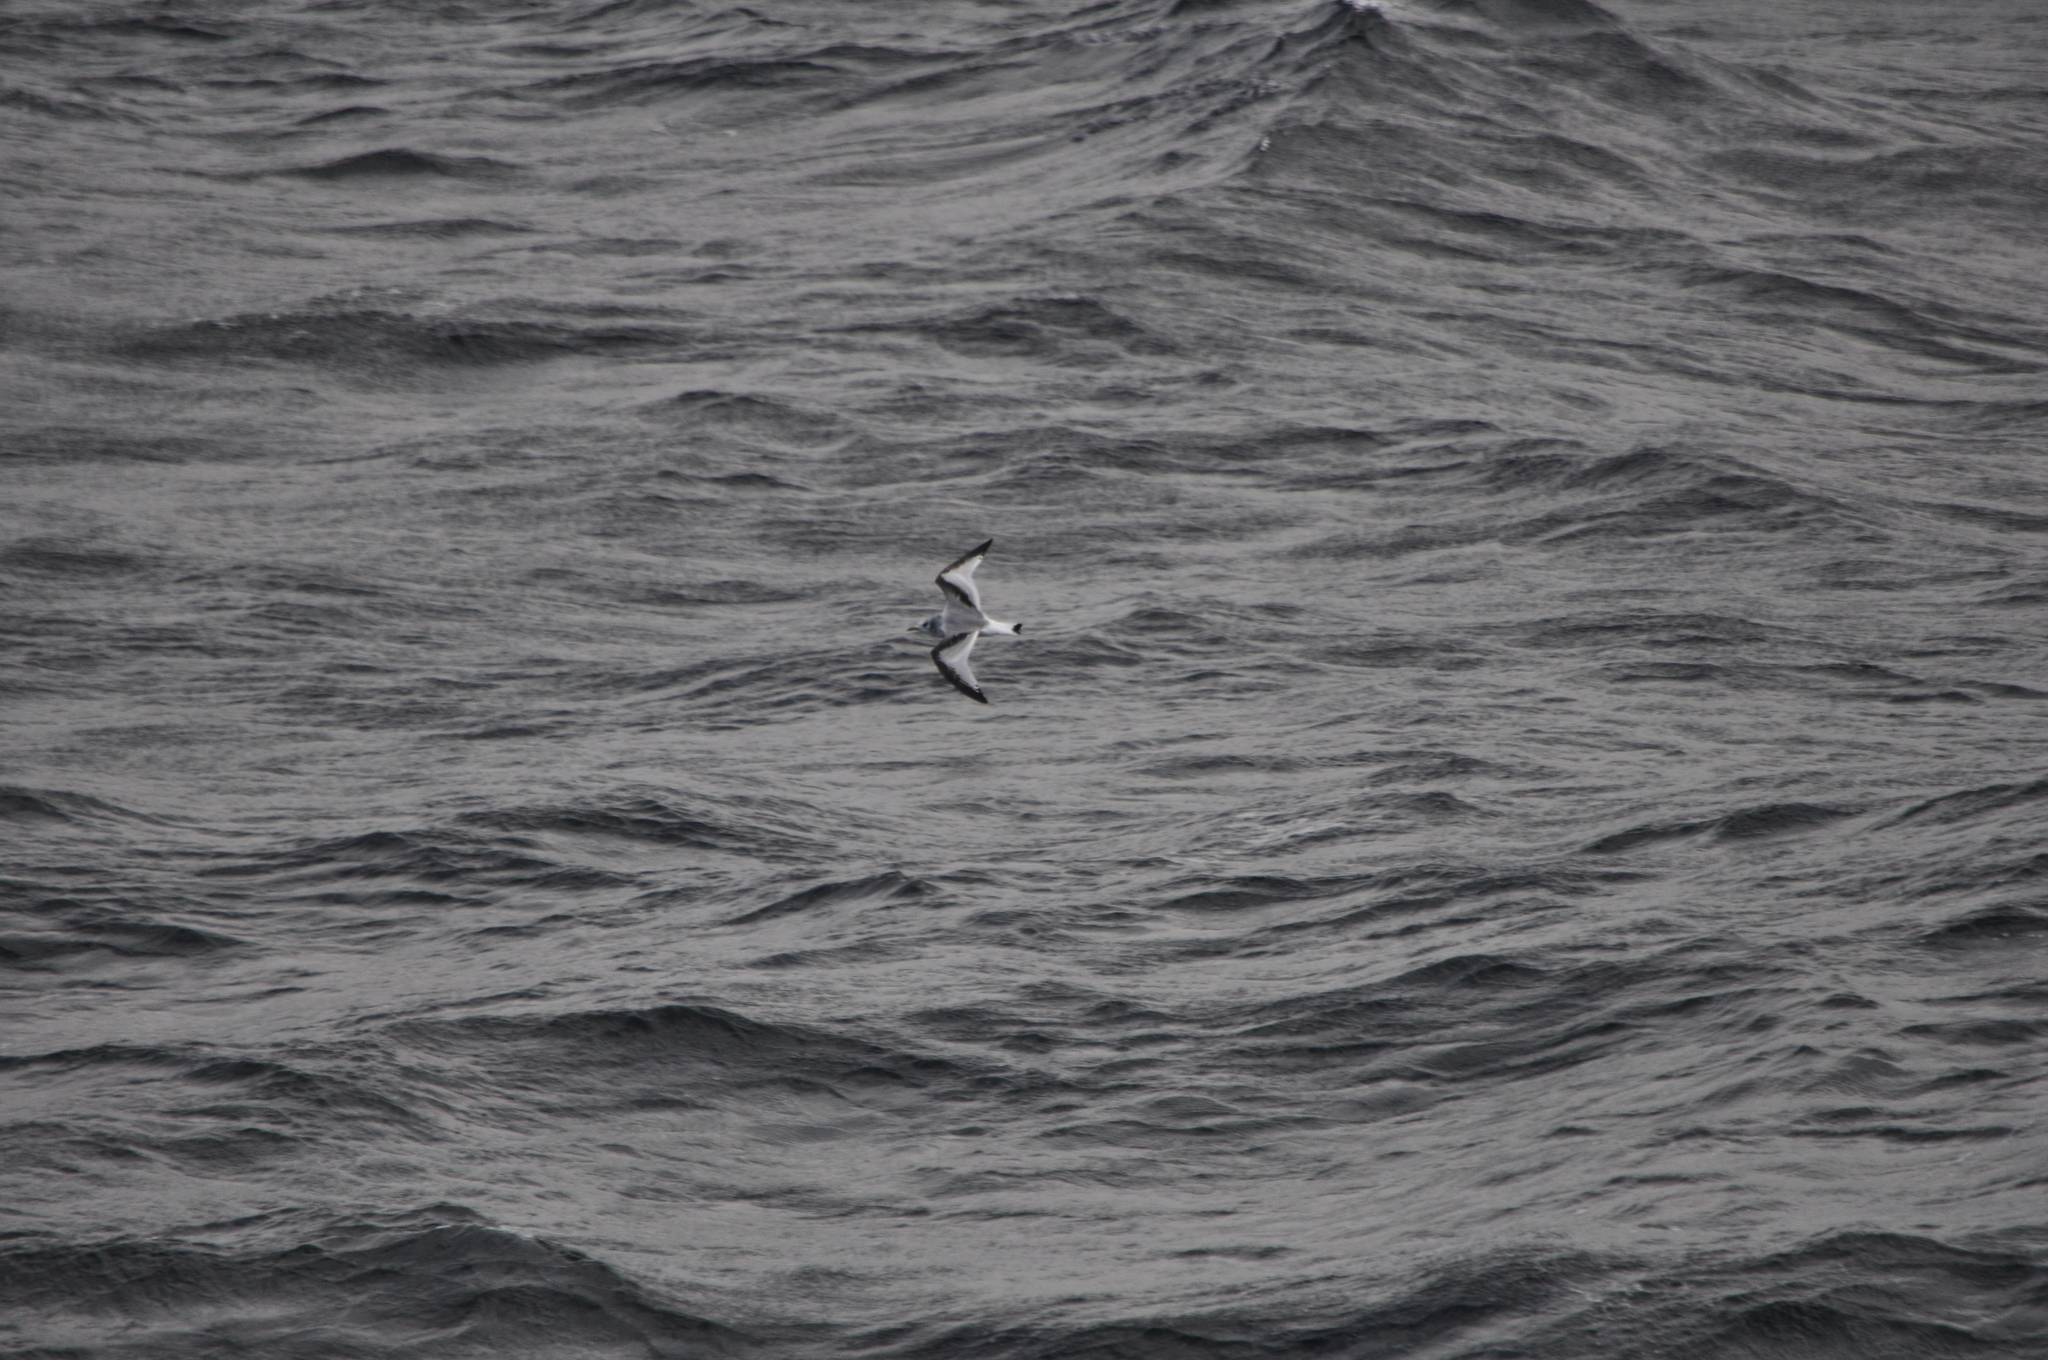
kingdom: Animalia
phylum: Chordata
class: Aves
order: Charadriiformes
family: Laridae
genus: Rissa
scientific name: Rissa tridactyla
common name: Black-legged kittiwake
